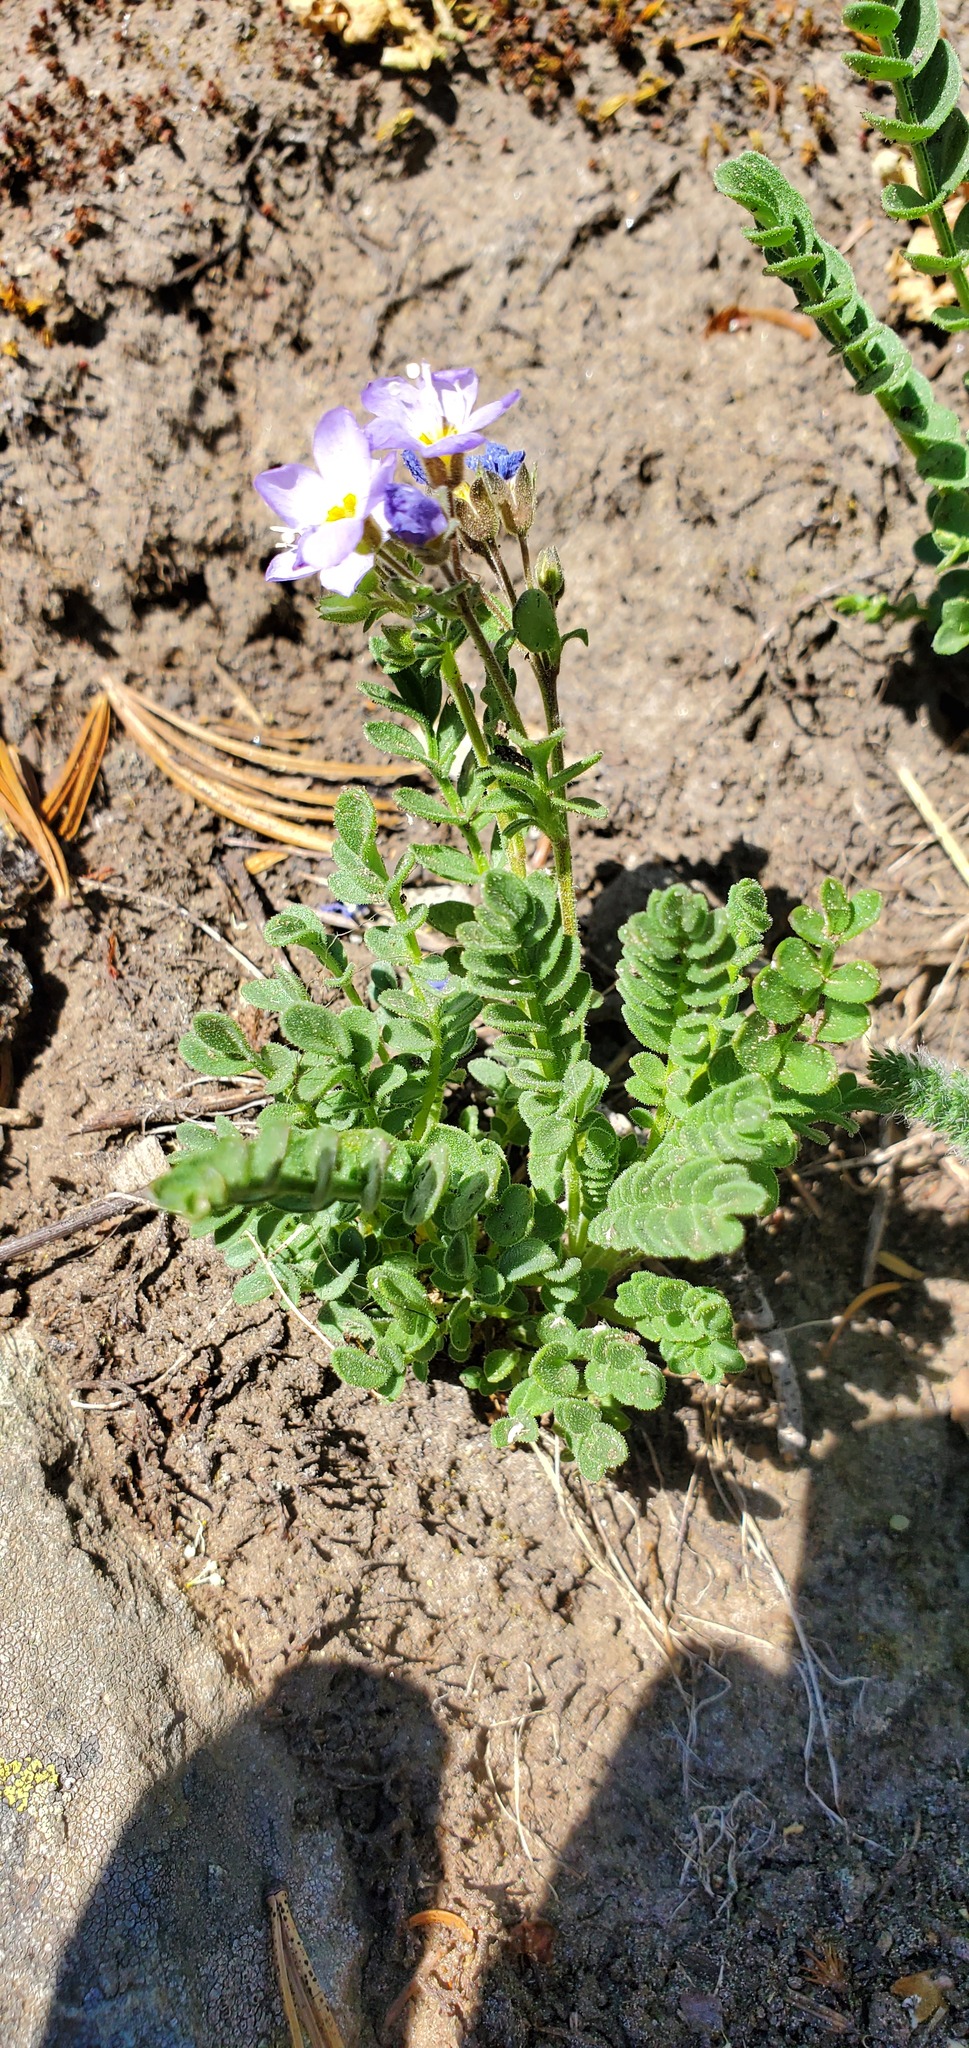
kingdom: Plantae
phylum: Tracheophyta
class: Magnoliopsida
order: Ericales
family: Polemoniaceae
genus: Polemonium
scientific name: Polemonium pulcherrimum
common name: Short jacob's-ladder
